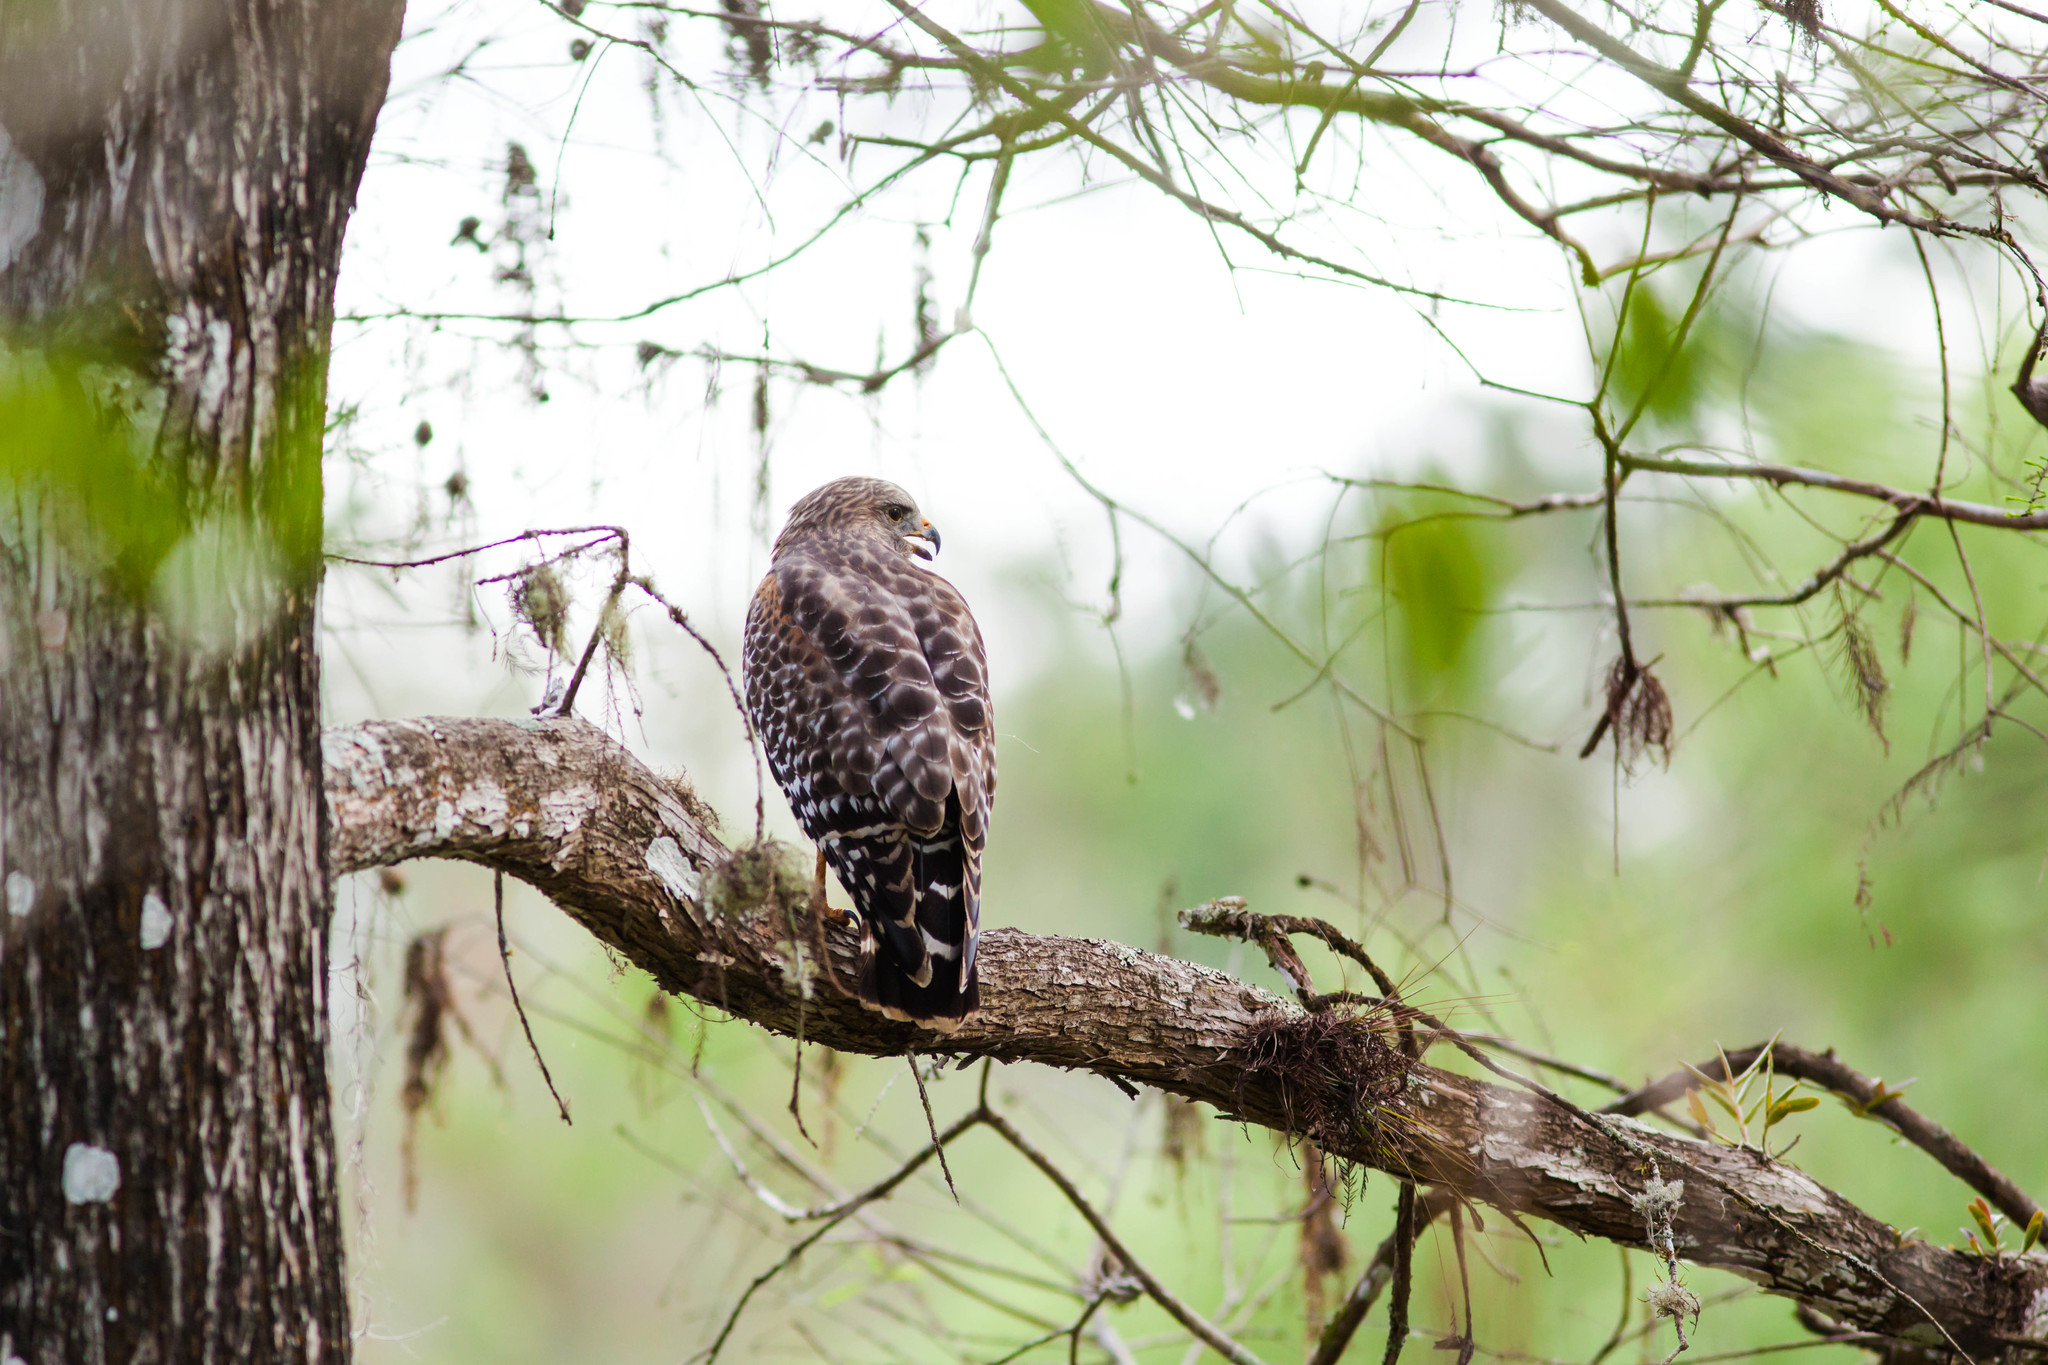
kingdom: Animalia
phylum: Chordata
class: Aves
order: Accipitriformes
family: Accipitridae
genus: Buteo
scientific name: Buteo lineatus
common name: Red-shouldered hawk
